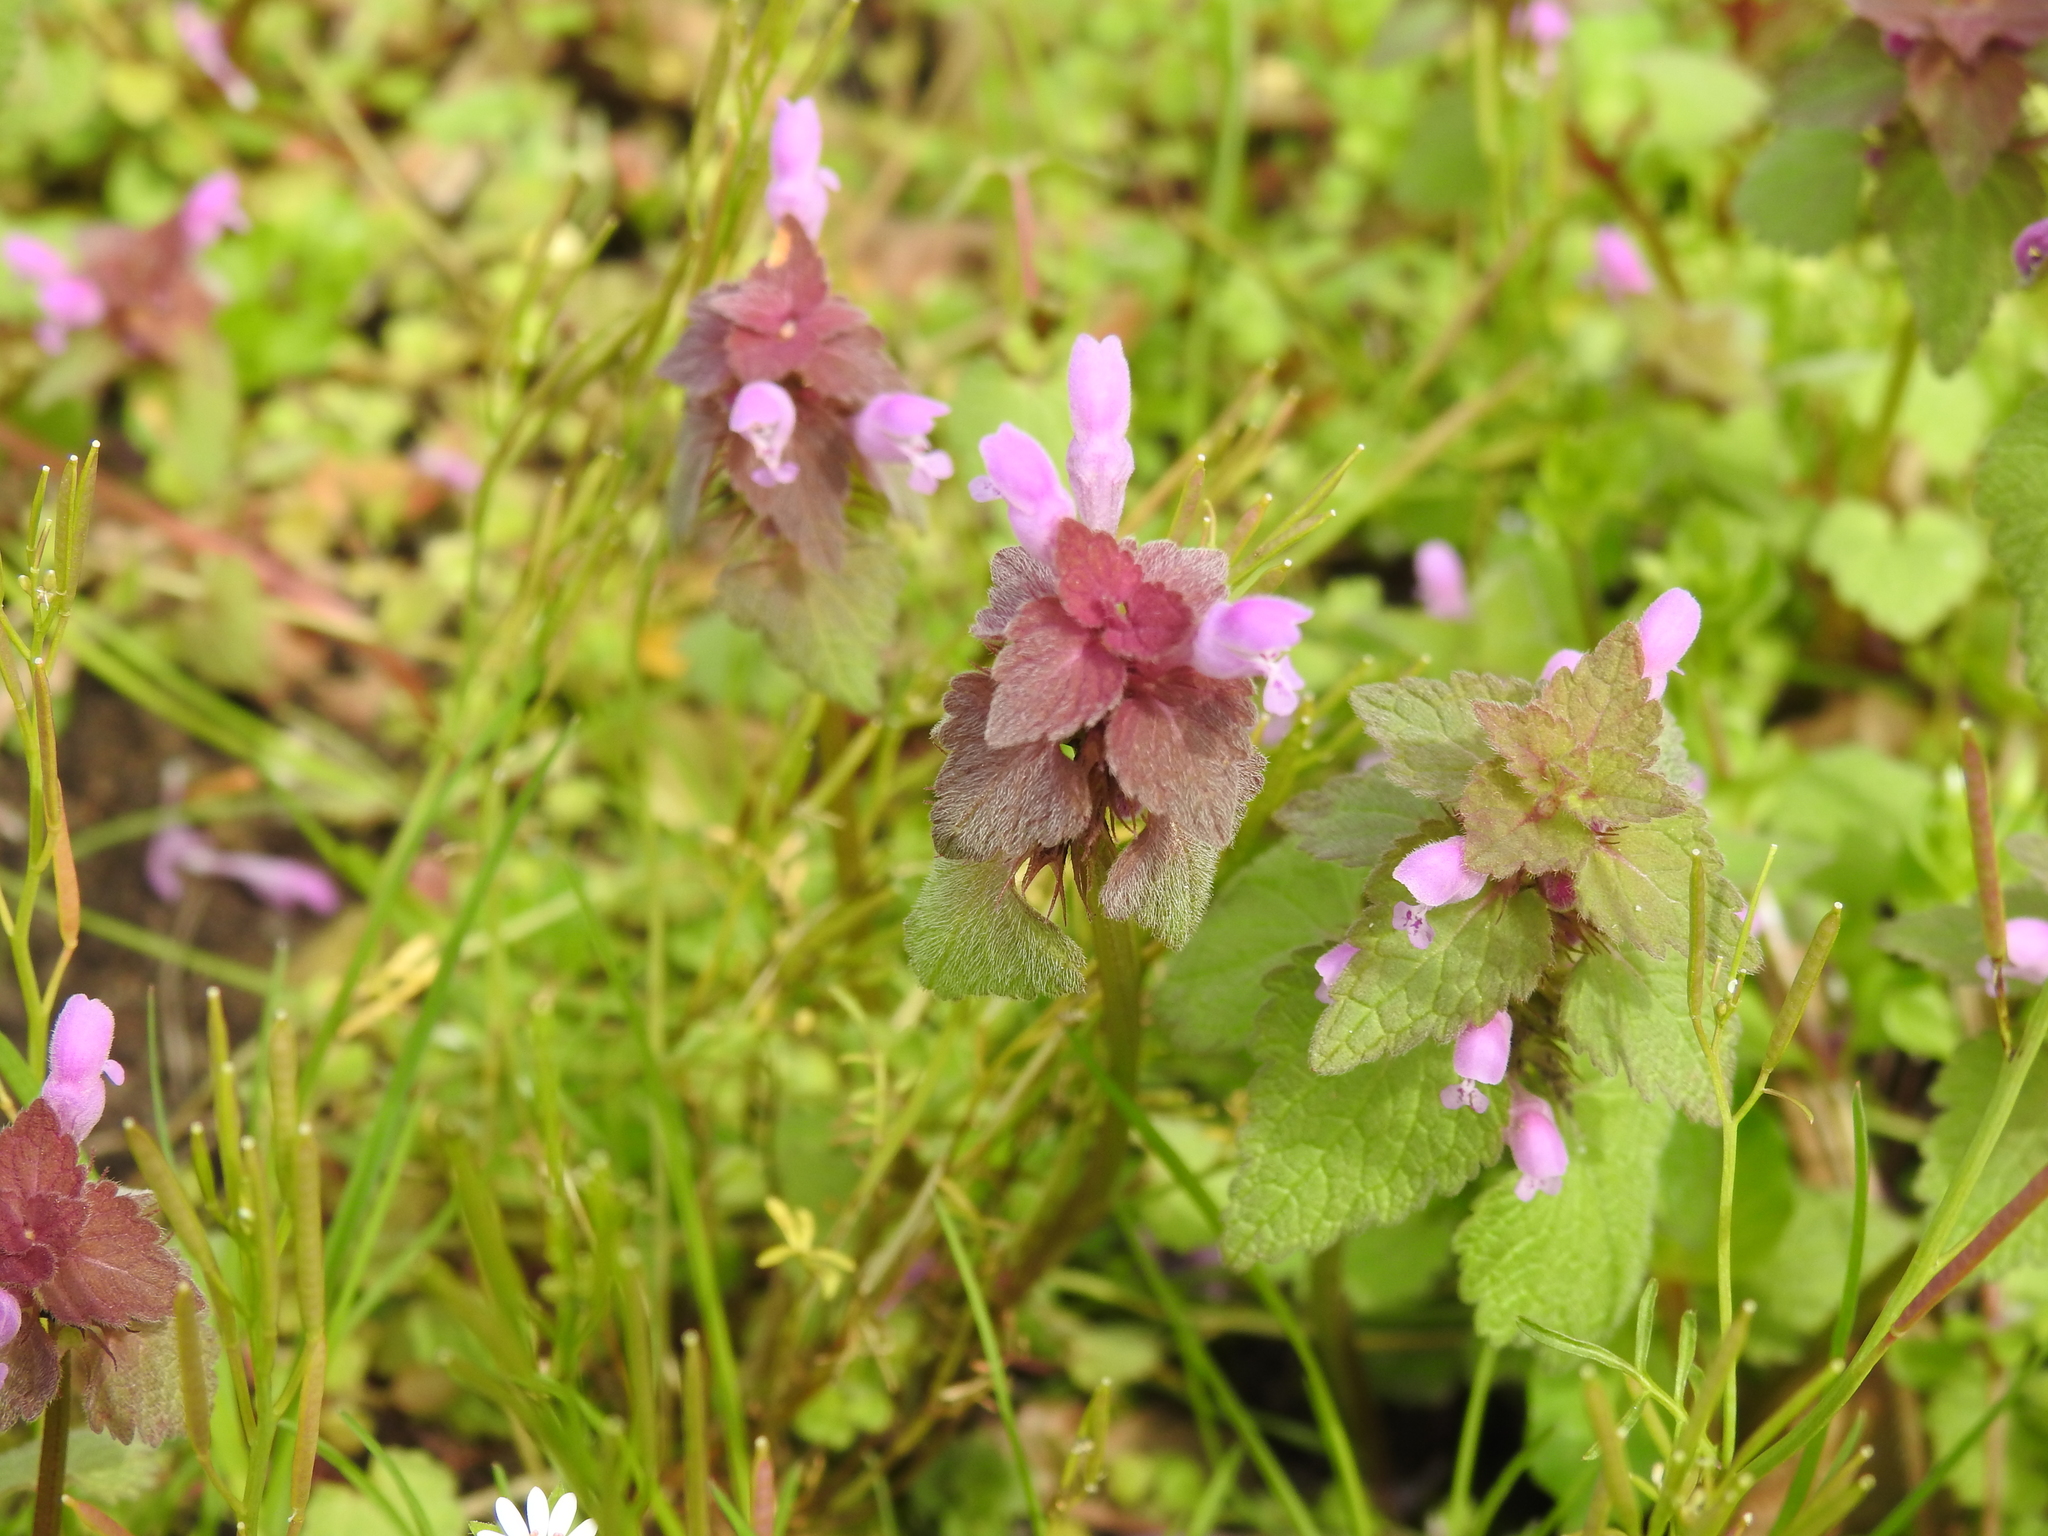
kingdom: Plantae
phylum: Tracheophyta
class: Magnoliopsida
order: Lamiales
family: Lamiaceae
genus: Lamium
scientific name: Lamium purpureum
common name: Red dead-nettle
